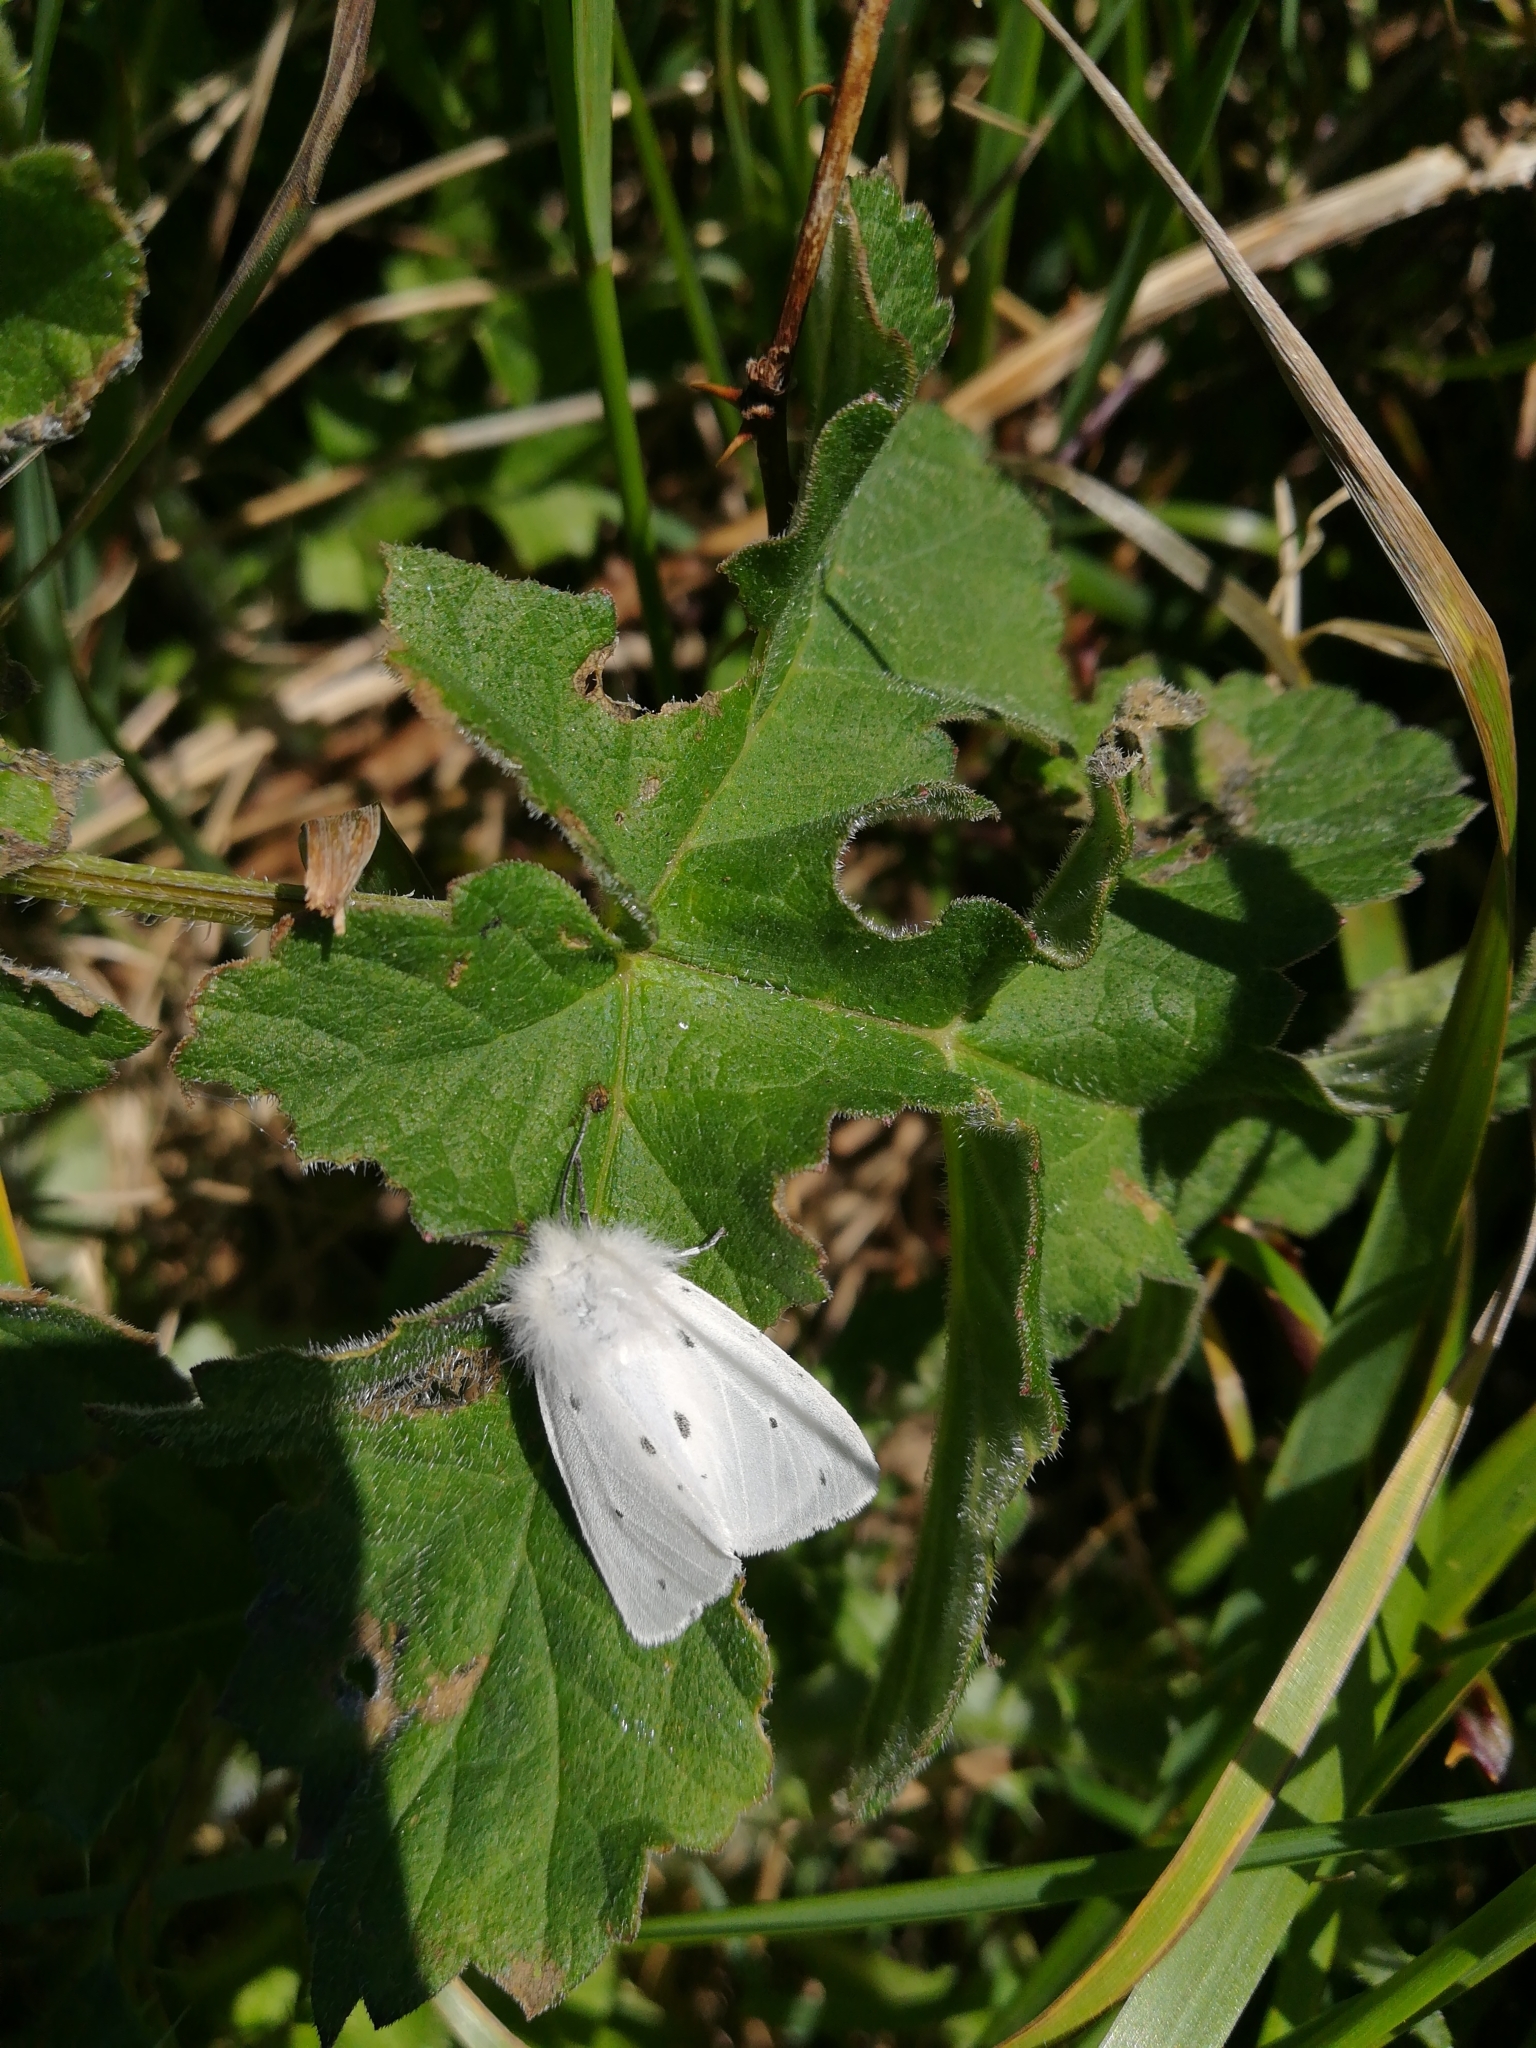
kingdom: Animalia
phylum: Arthropoda
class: Insecta
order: Lepidoptera
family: Erebidae
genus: Diaphora
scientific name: Diaphora mendica
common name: Muslin moth
